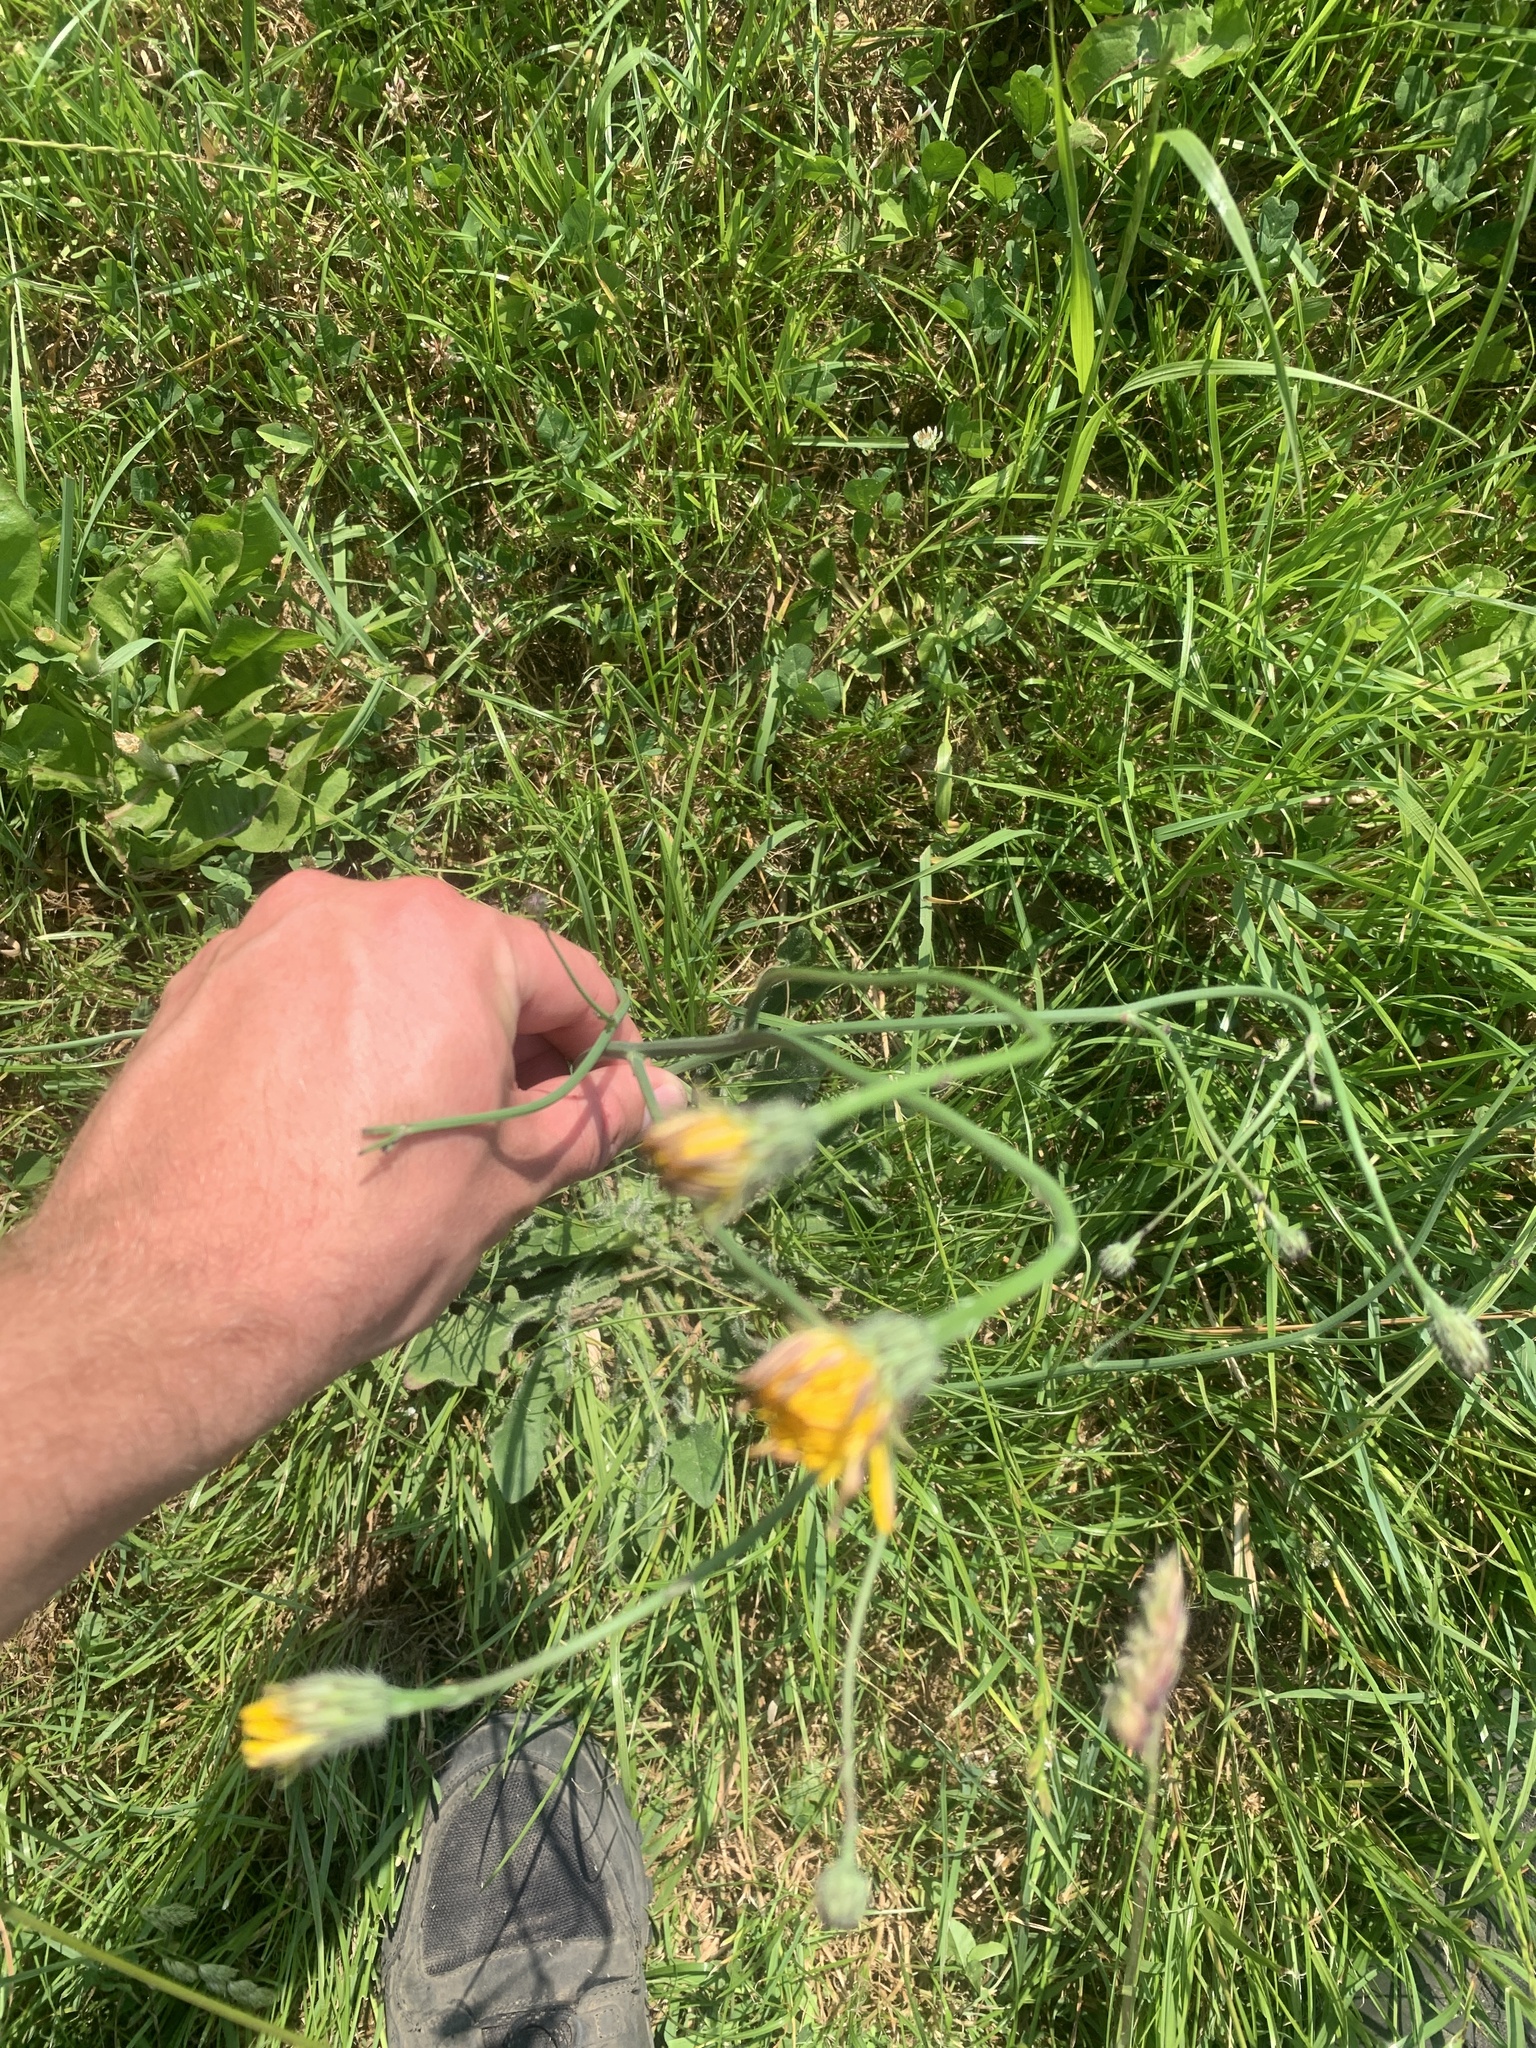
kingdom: Plantae
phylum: Tracheophyta
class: Magnoliopsida
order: Asterales
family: Asteraceae
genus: Hypochaeris
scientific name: Hypochaeris radicata
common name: Flatweed
